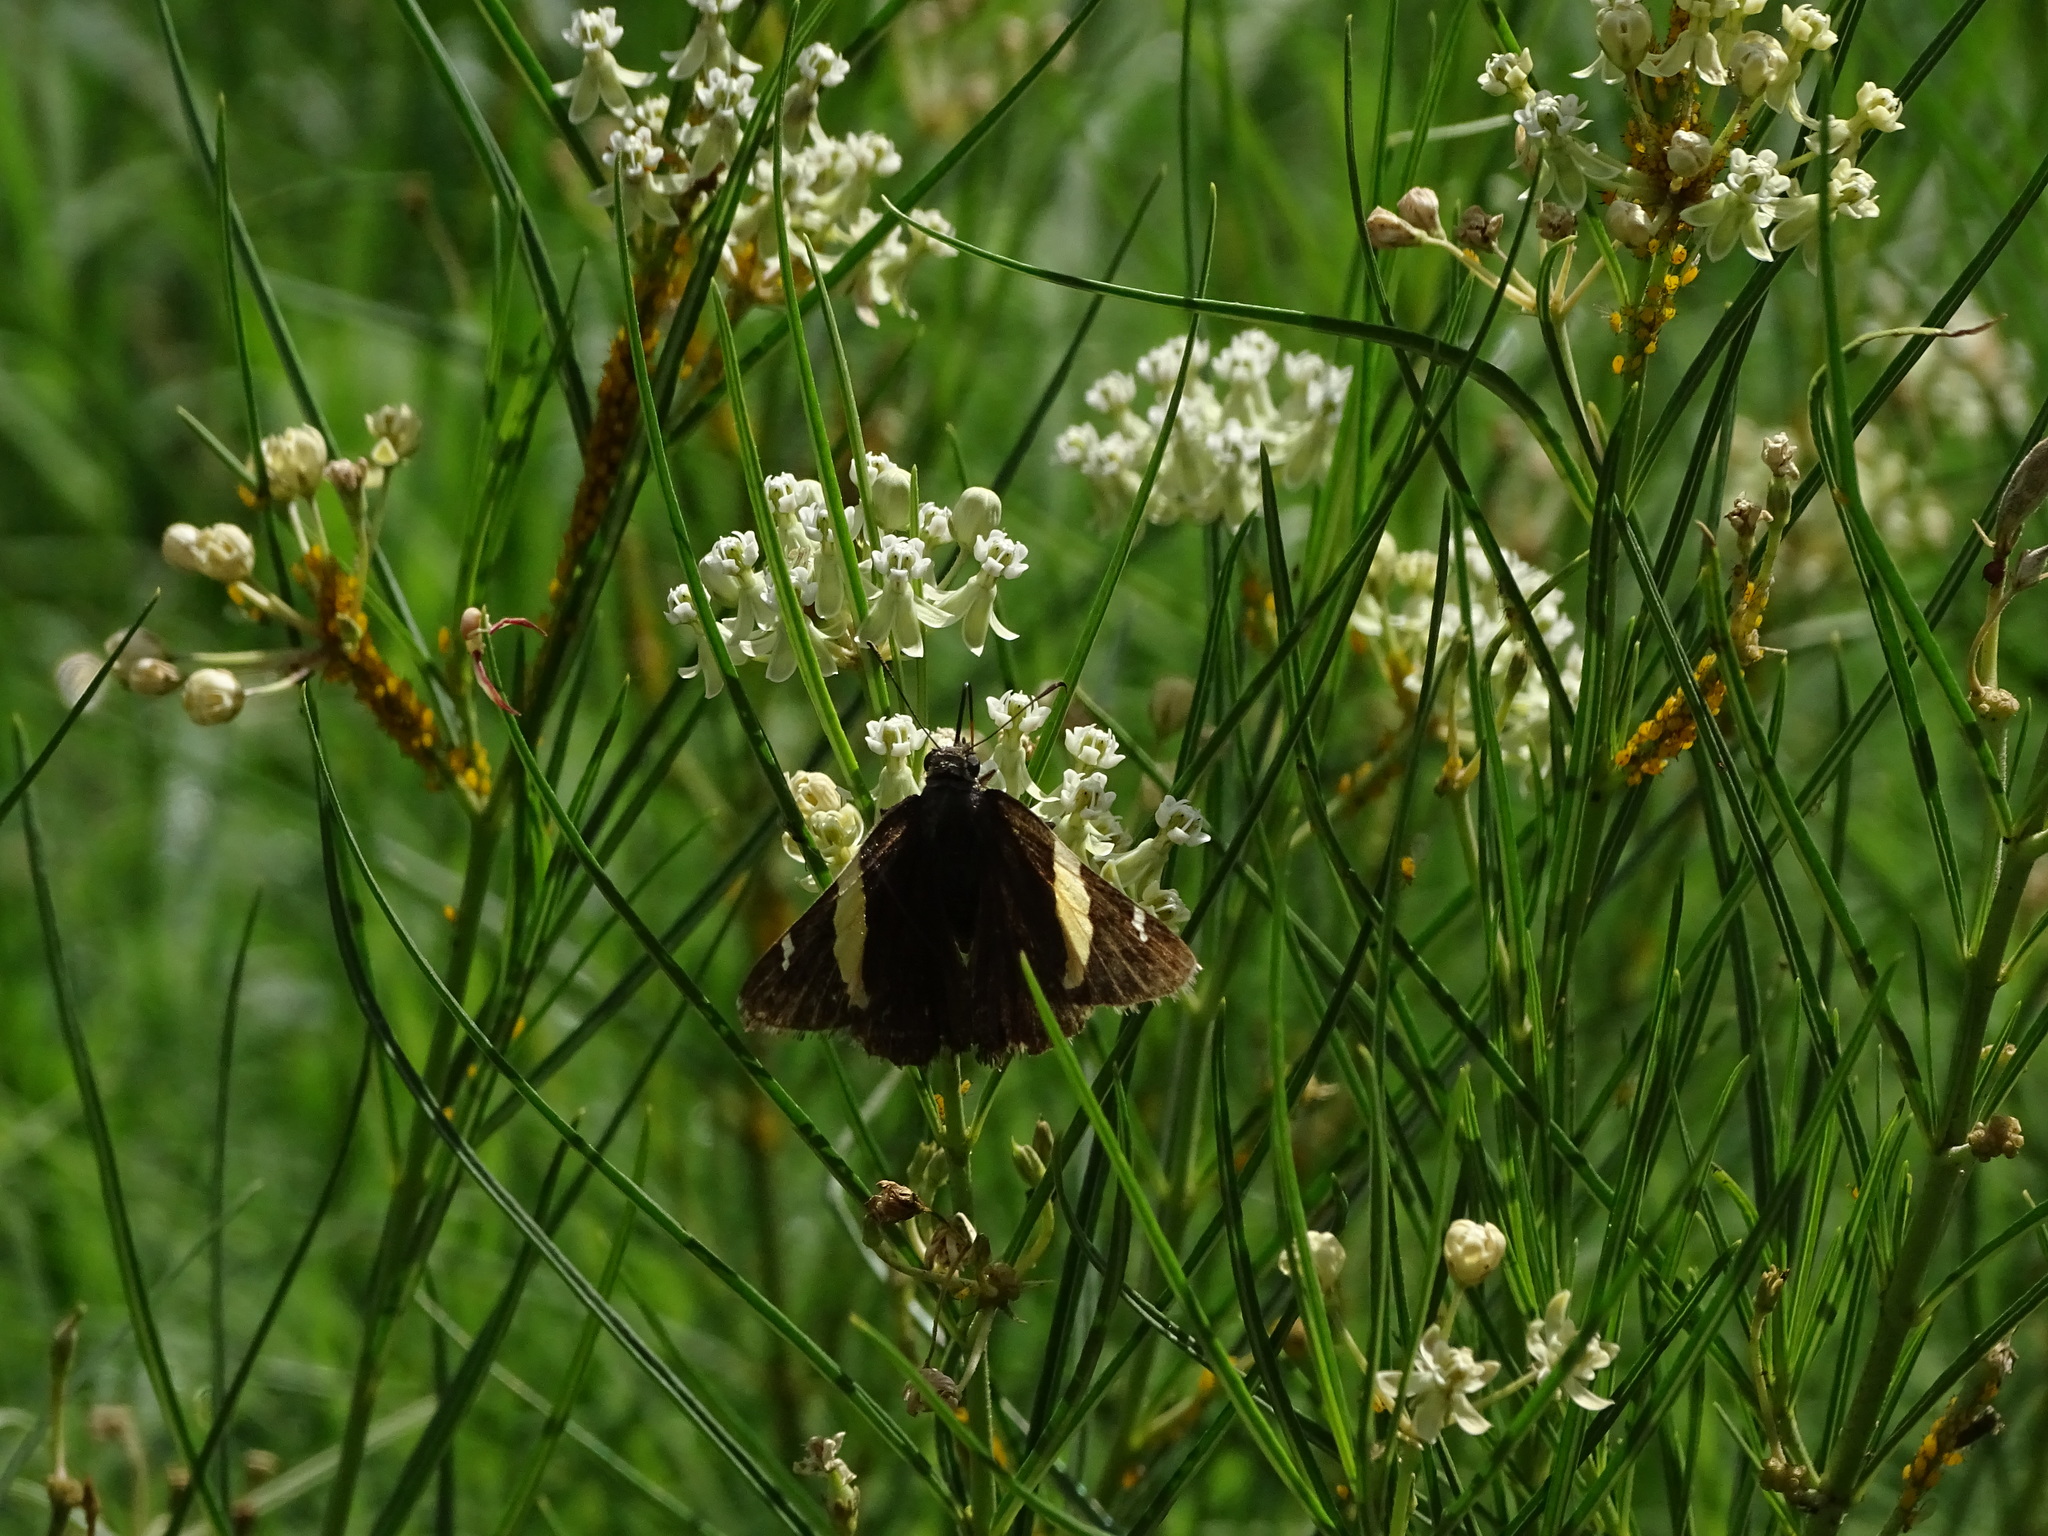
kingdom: Animalia
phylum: Arthropoda
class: Arachnida
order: Scorpiones
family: Bothriuridae
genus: Telegonus
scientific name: Telegonus cellus
